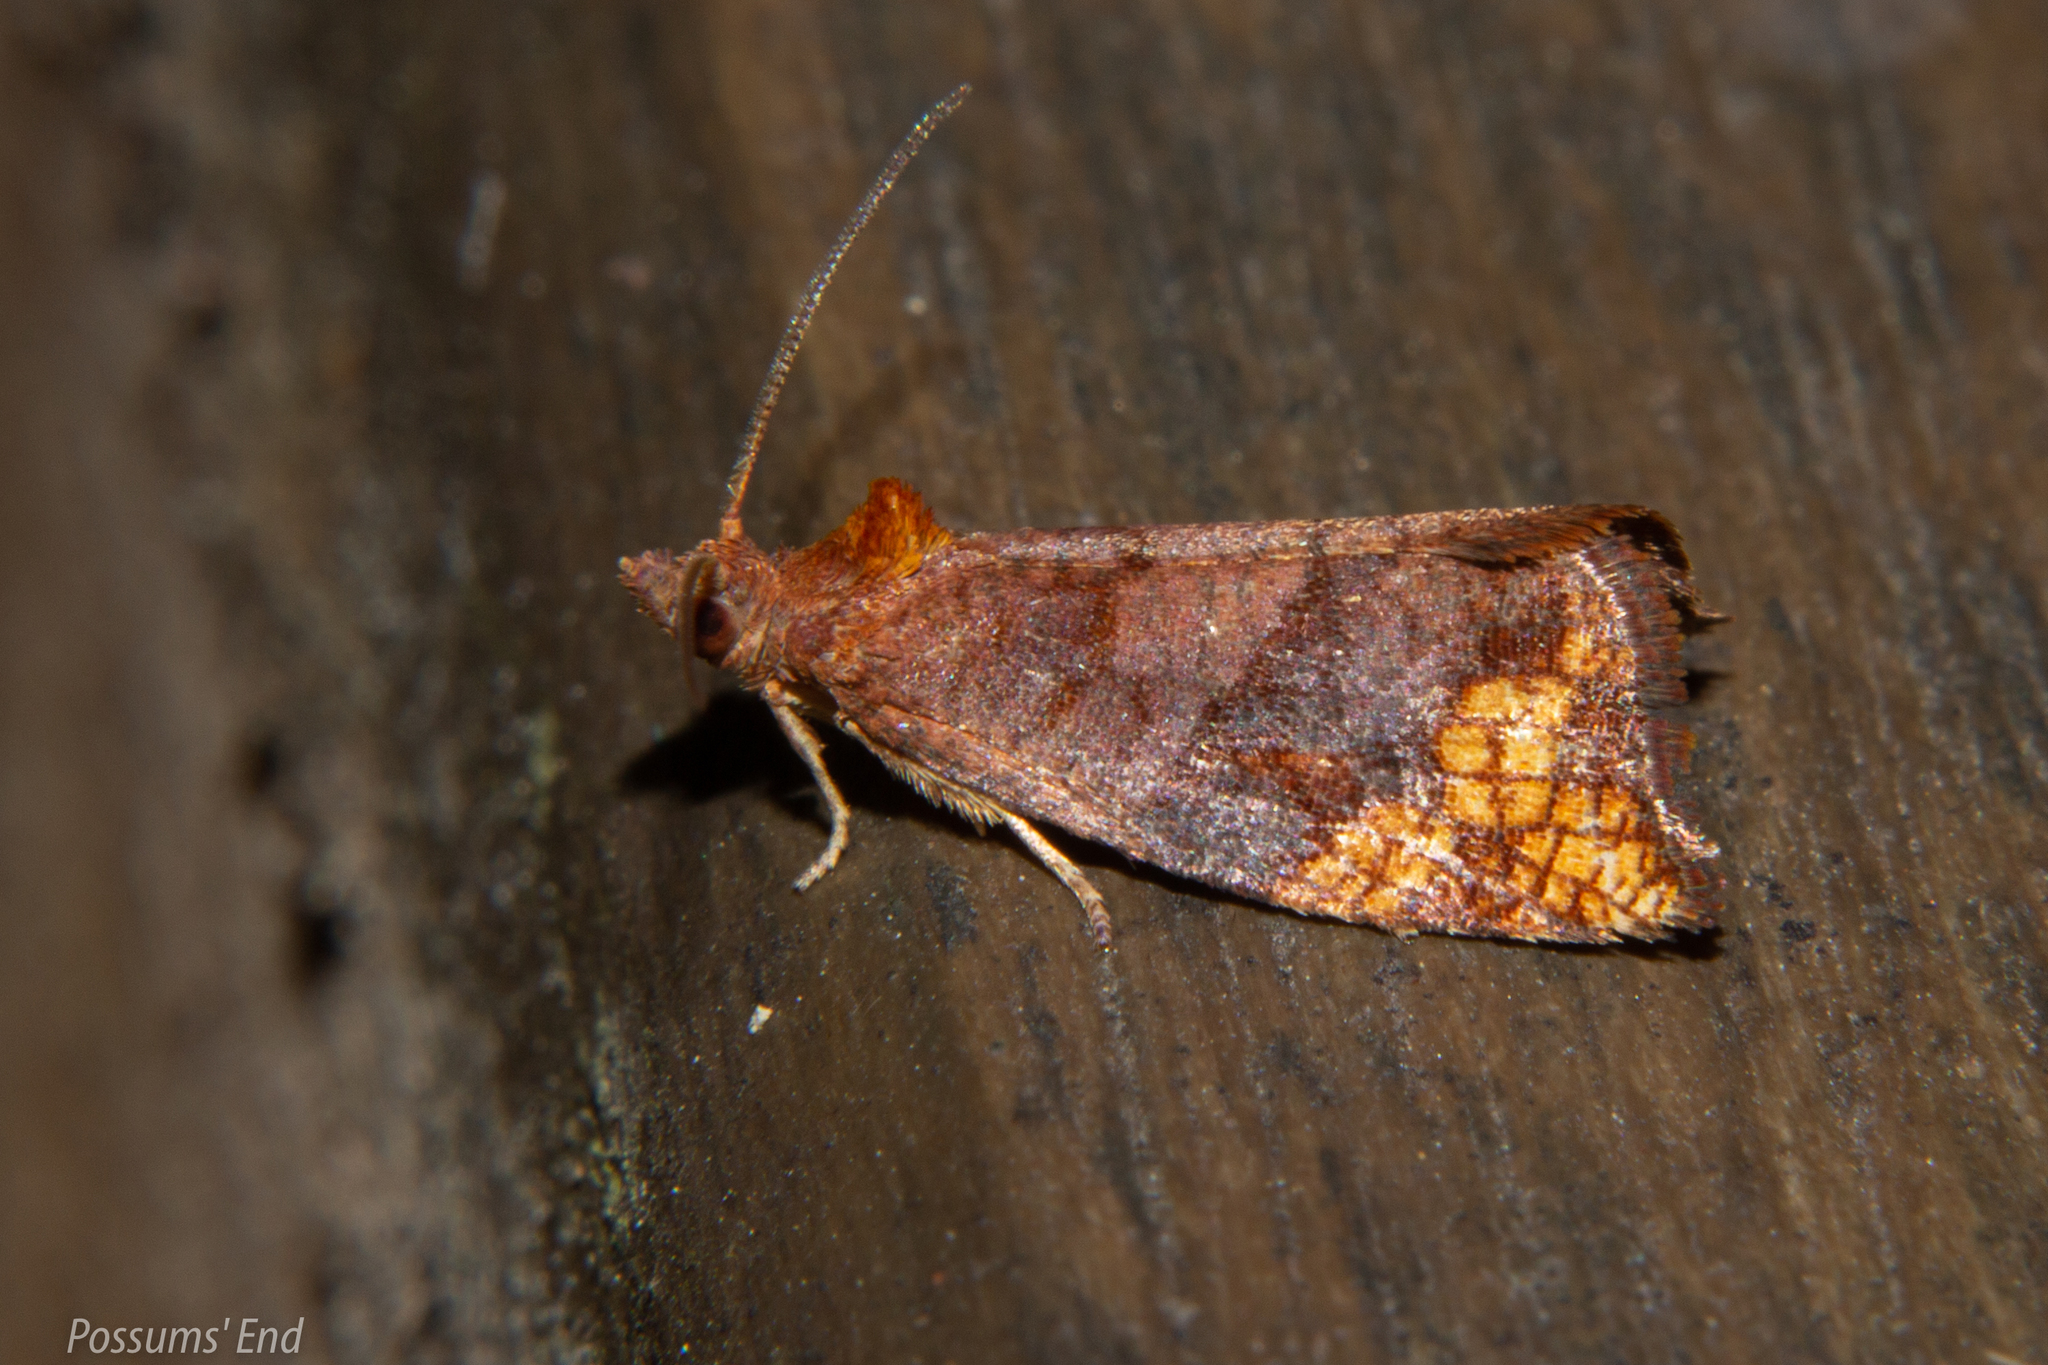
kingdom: Animalia
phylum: Arthropoda
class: Insecta
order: Lepidoptera
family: Tortricidae
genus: Pyrgotis
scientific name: Pyrgotis eudorana
